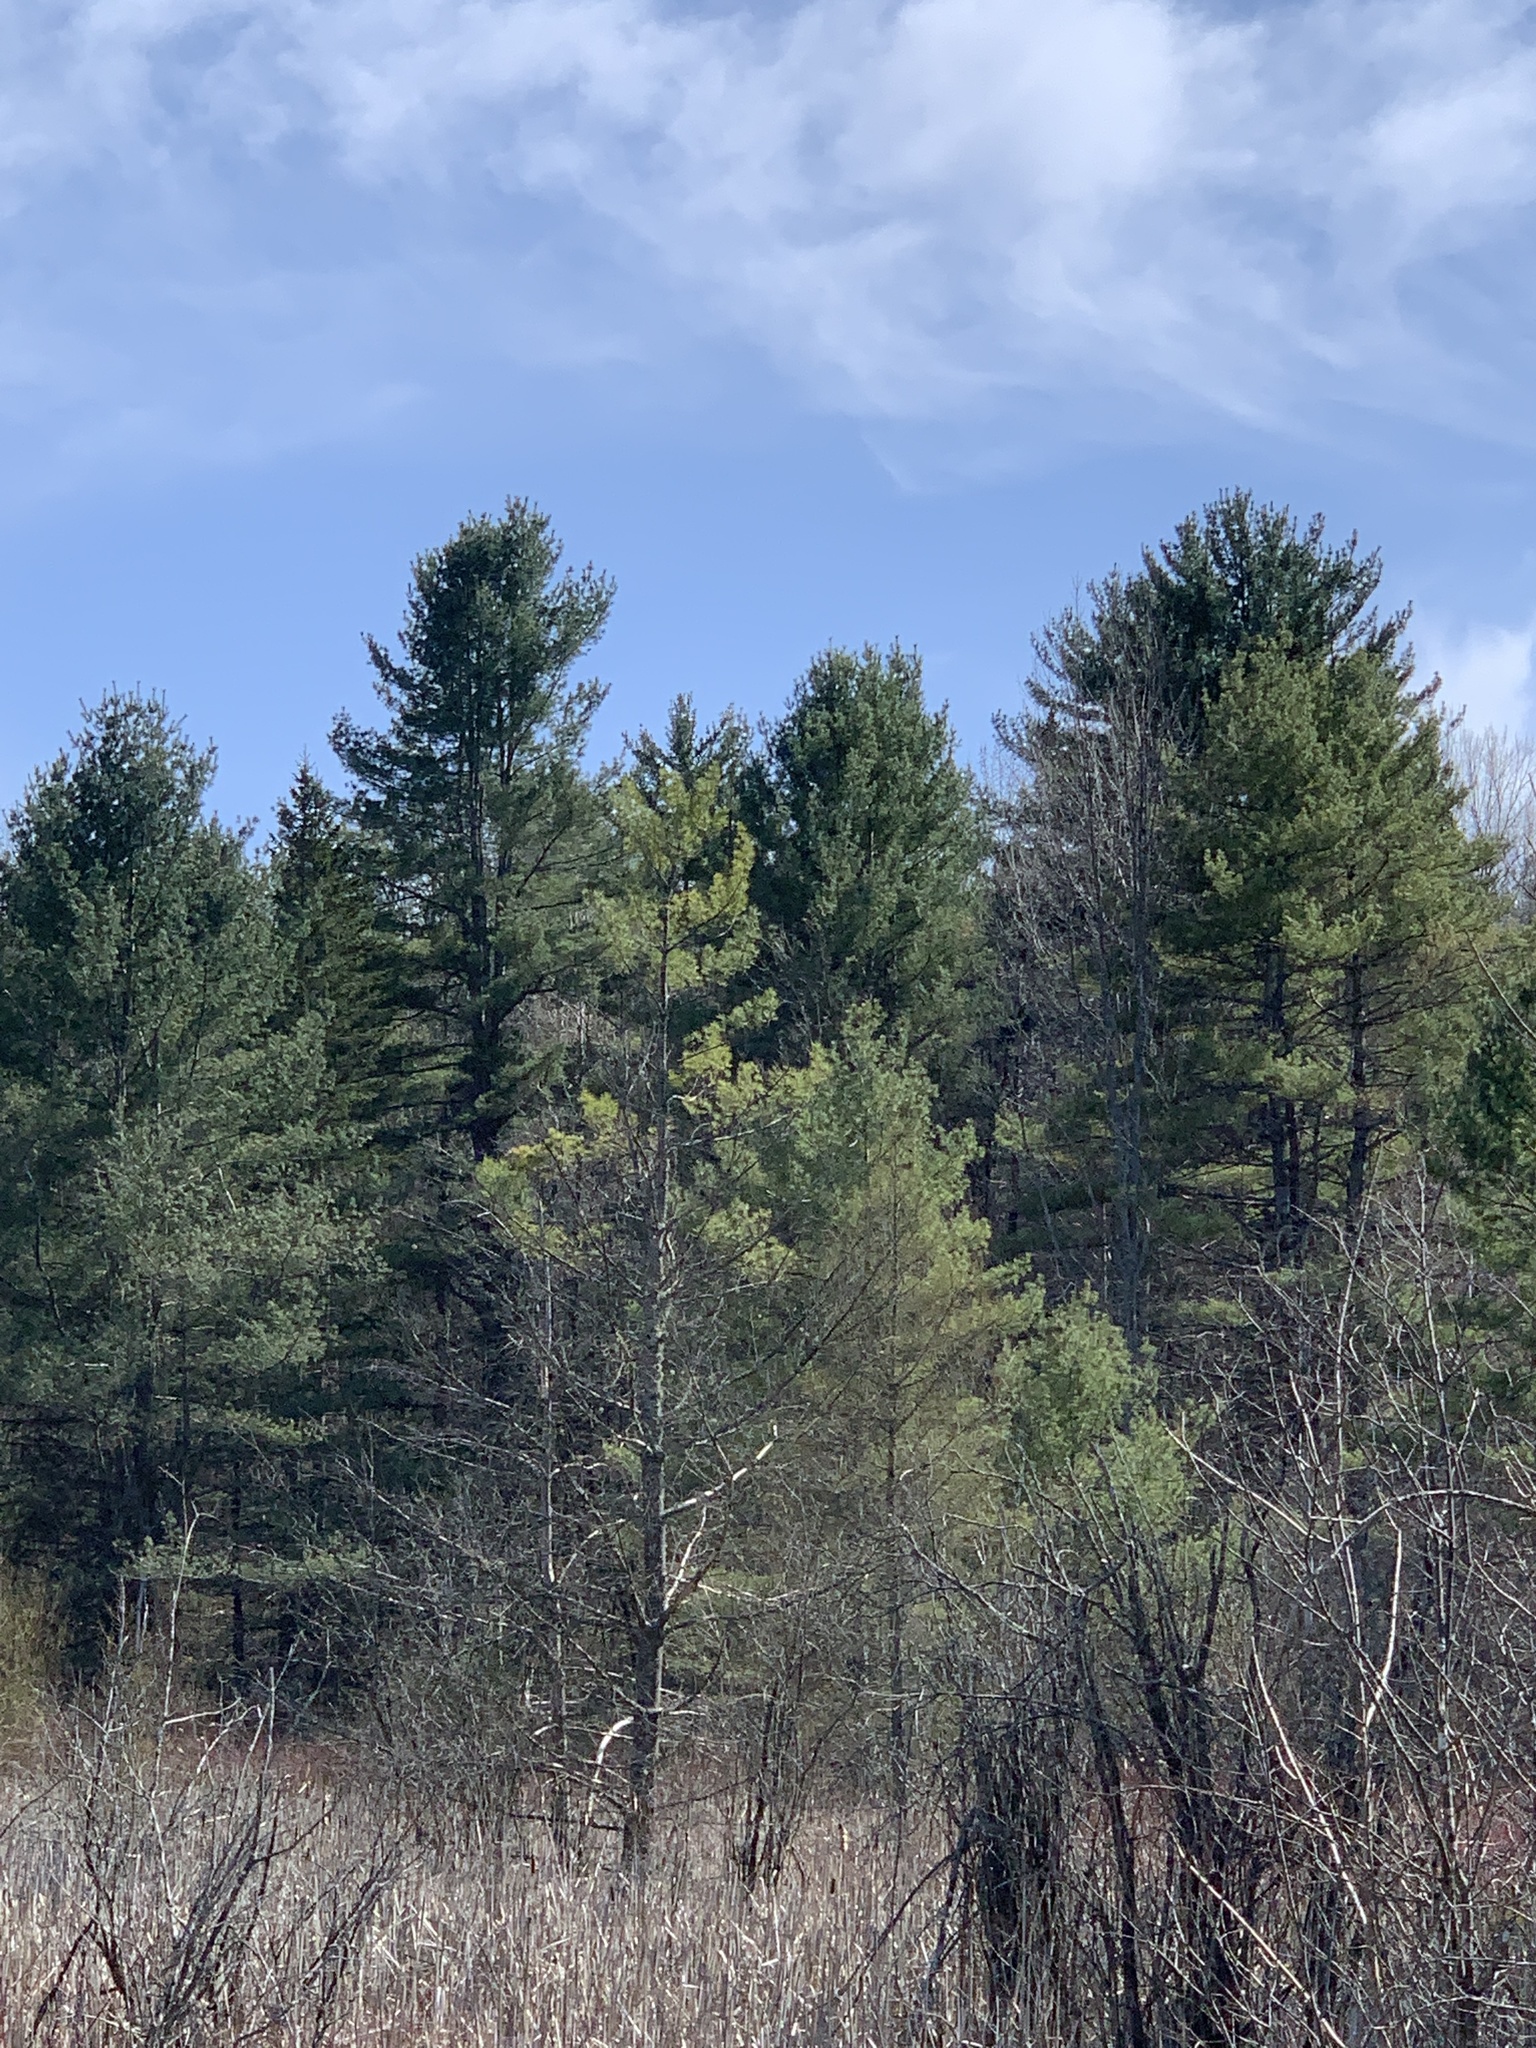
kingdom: Plantae
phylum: Tracheophyta
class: Pinopsida
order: Pinales
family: Pinaceae
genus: Pinus
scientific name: Pinus strobus
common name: Weymouth pine
